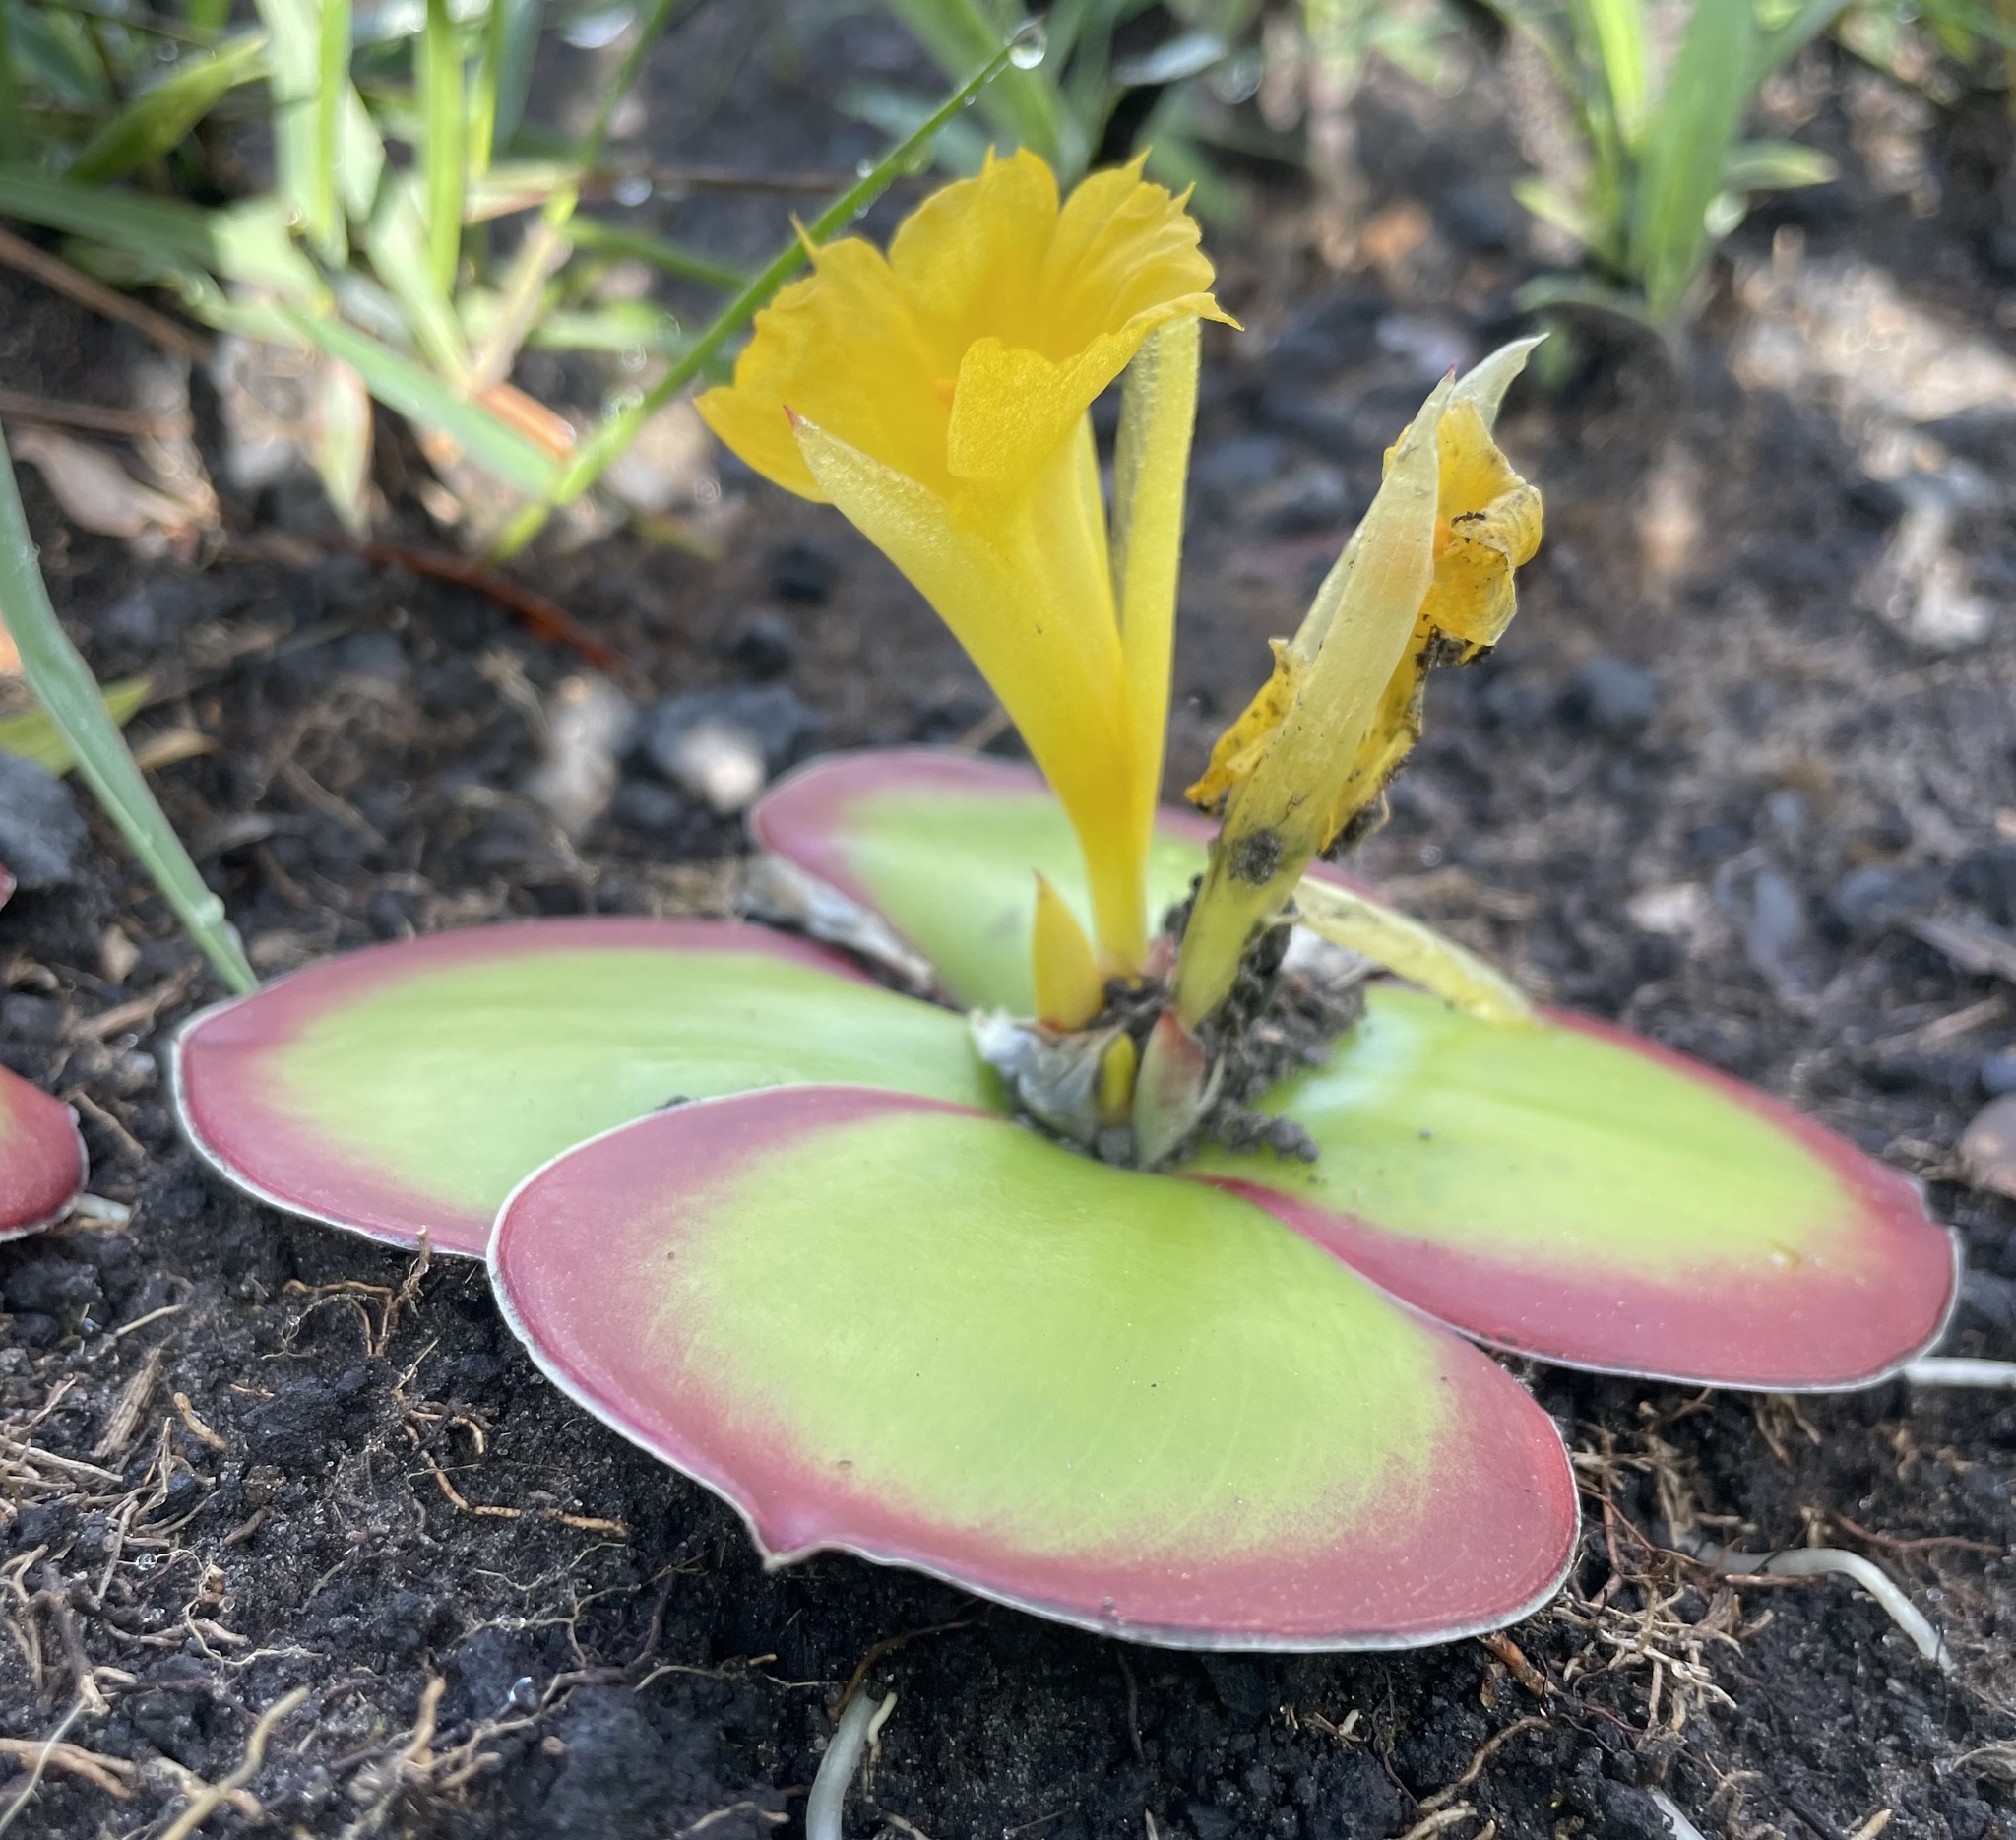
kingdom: Plantae
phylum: Tracheophyta
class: Liliopsida
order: Zingiberales
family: Costaceae
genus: Costus
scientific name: Costus spectabilis
